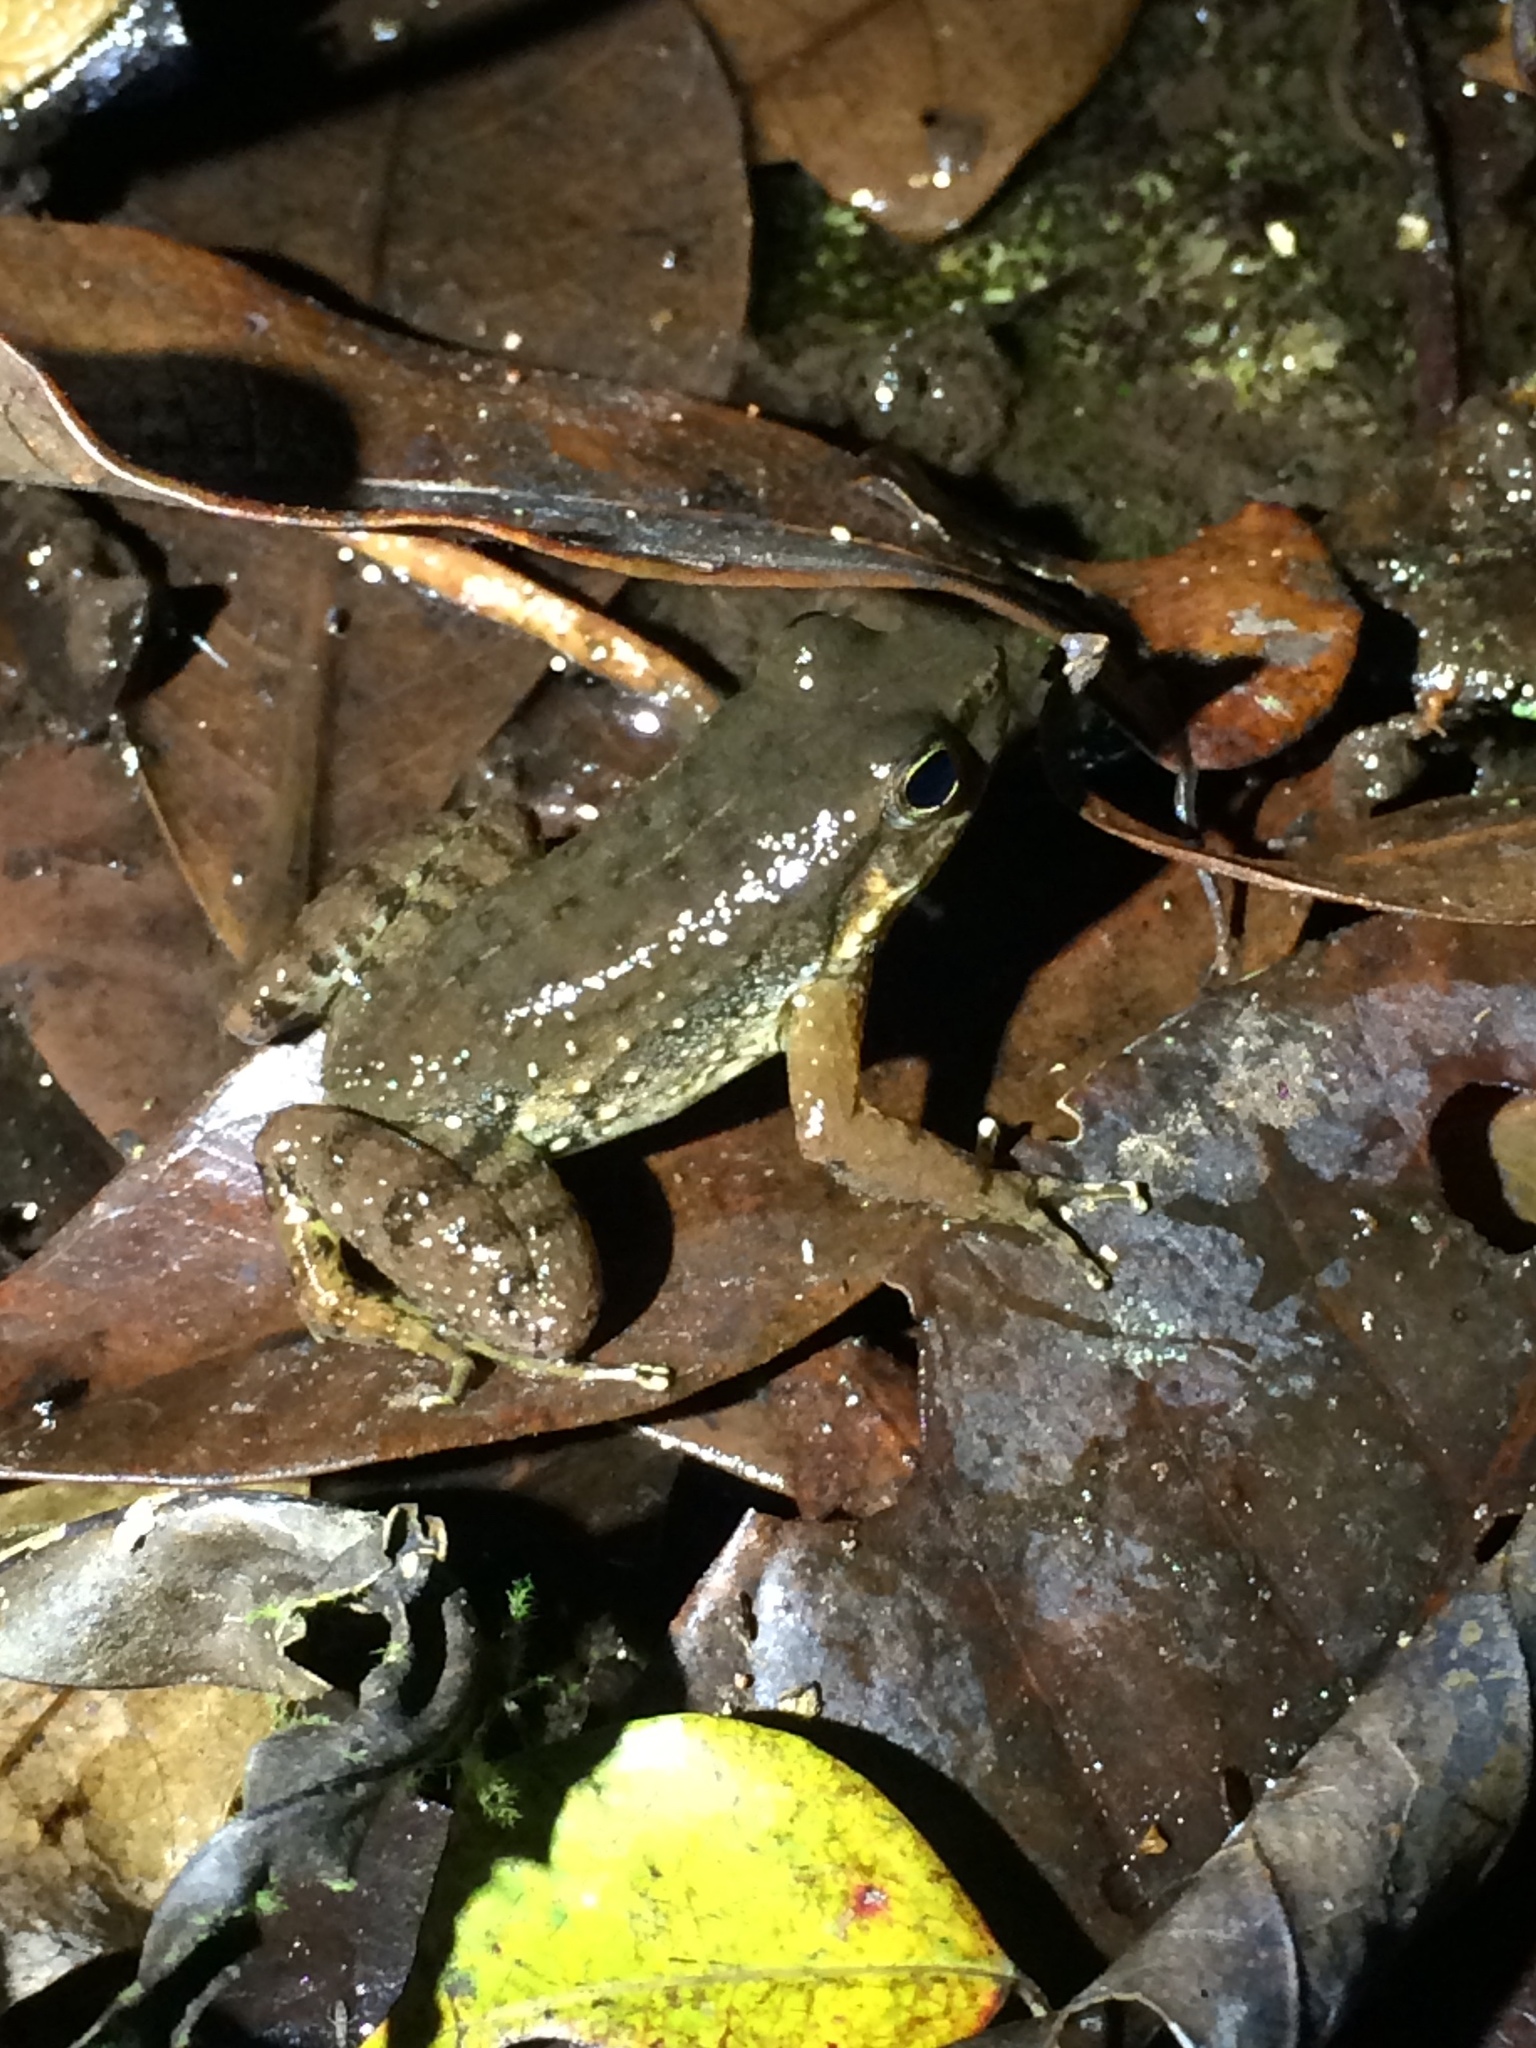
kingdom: Animalia
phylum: Chordata
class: Amphibia
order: Anura
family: Hylodidae
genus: Crossodactylus
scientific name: Crossodactylus dantei
